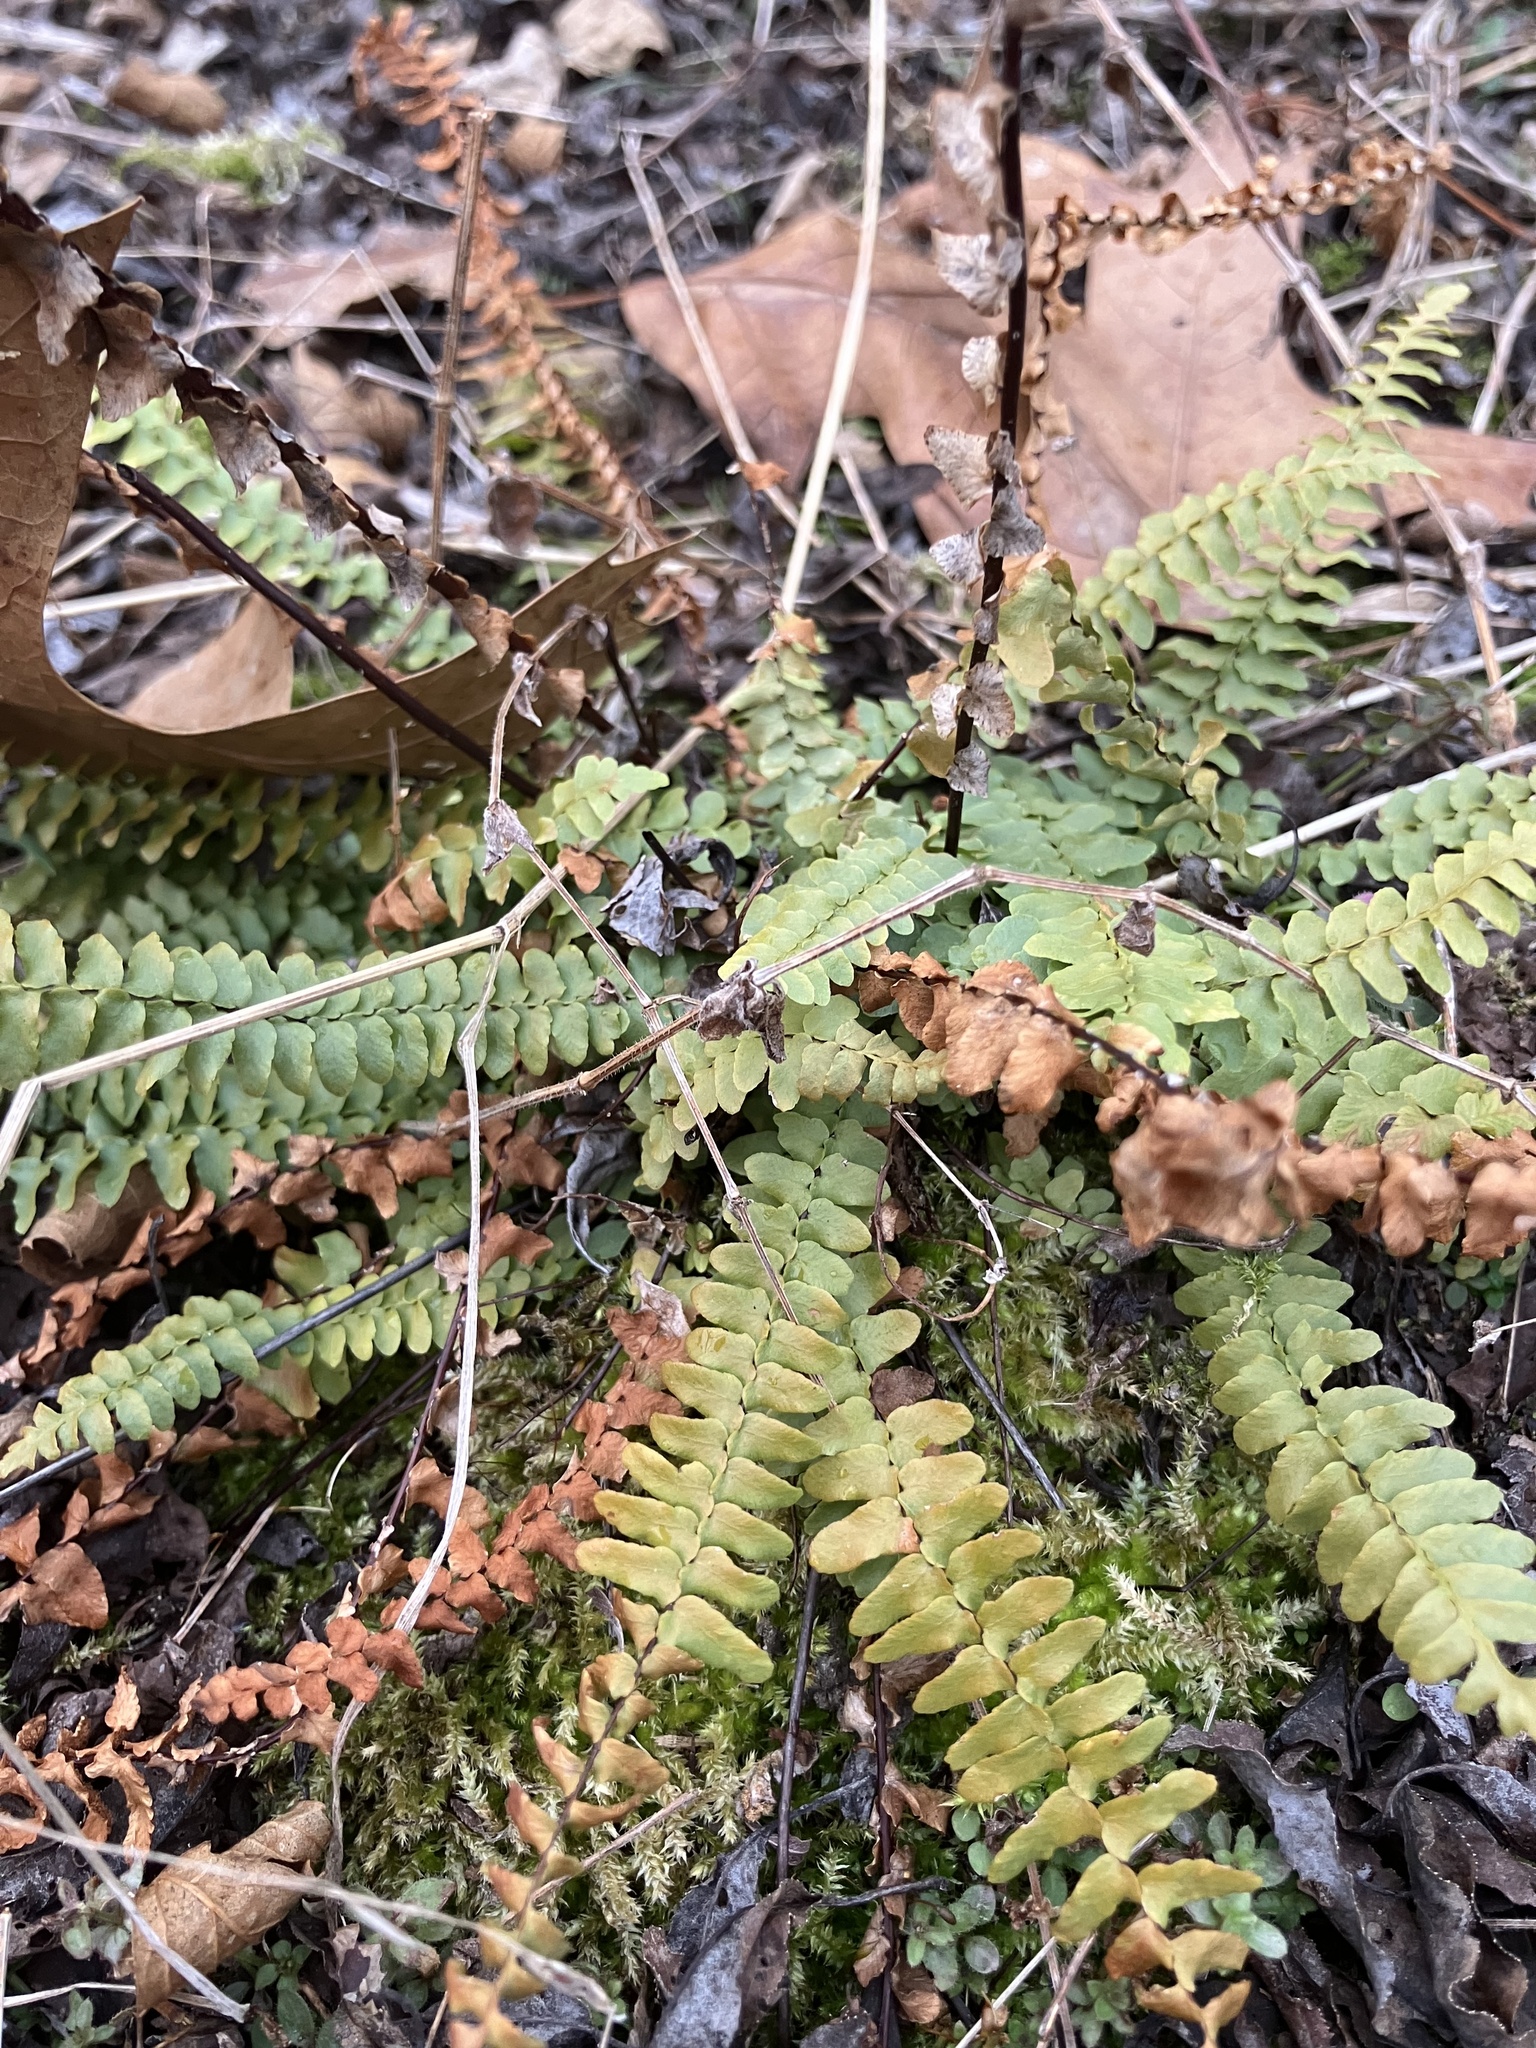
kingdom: Plantae
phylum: Tracheophyta
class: Polypodiopsida
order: Polypodiales
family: Aspleniaceae
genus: Asplenium
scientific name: Asplenium platyneuron
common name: Ebony spleenwort
